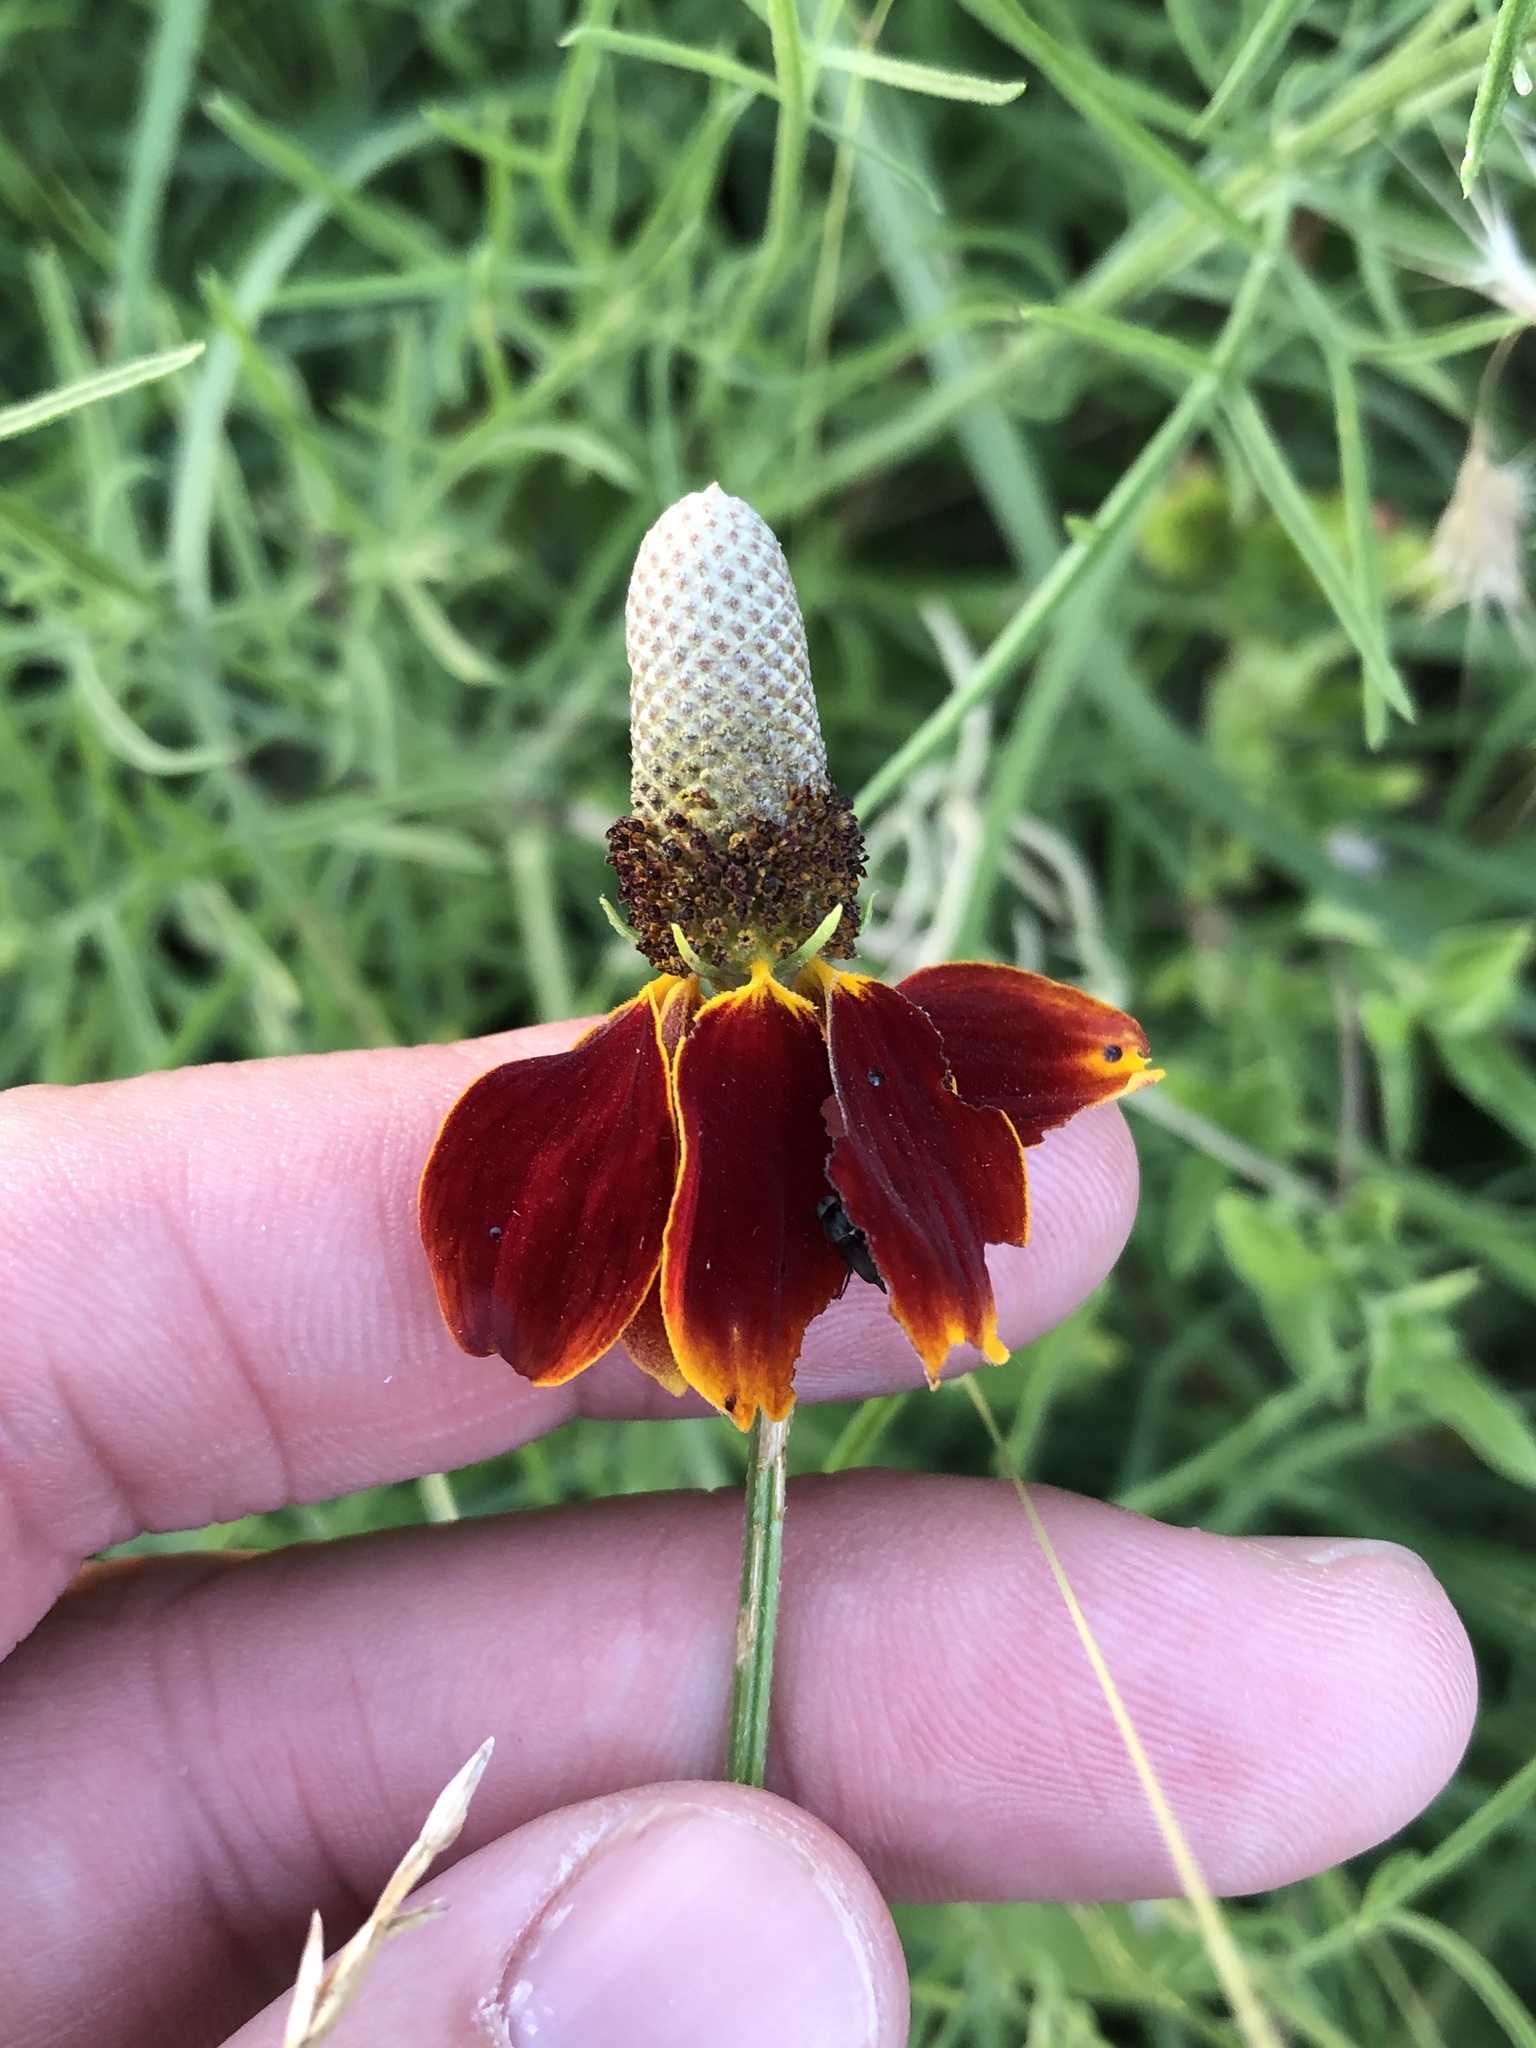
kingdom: Plantae
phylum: Tracheophyta
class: Magnoliopsida
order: Asterales
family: Asteraceae
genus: Ratibida
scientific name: Ratibida columnifera
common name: Prairie coneflower
